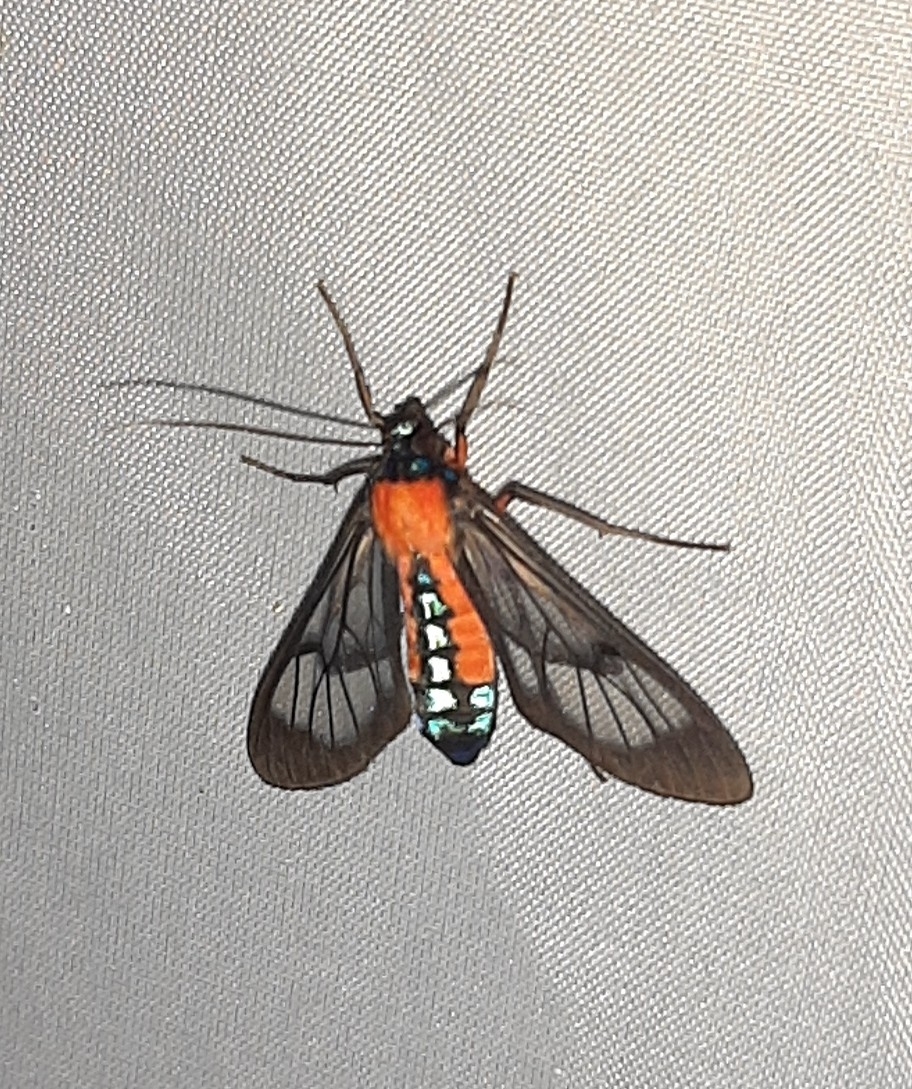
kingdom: Animalia
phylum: Arthropoda
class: Insecta
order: Lepidoptera
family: Erebidae
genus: Cosmosoma
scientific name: Cosmosoma oroyana
